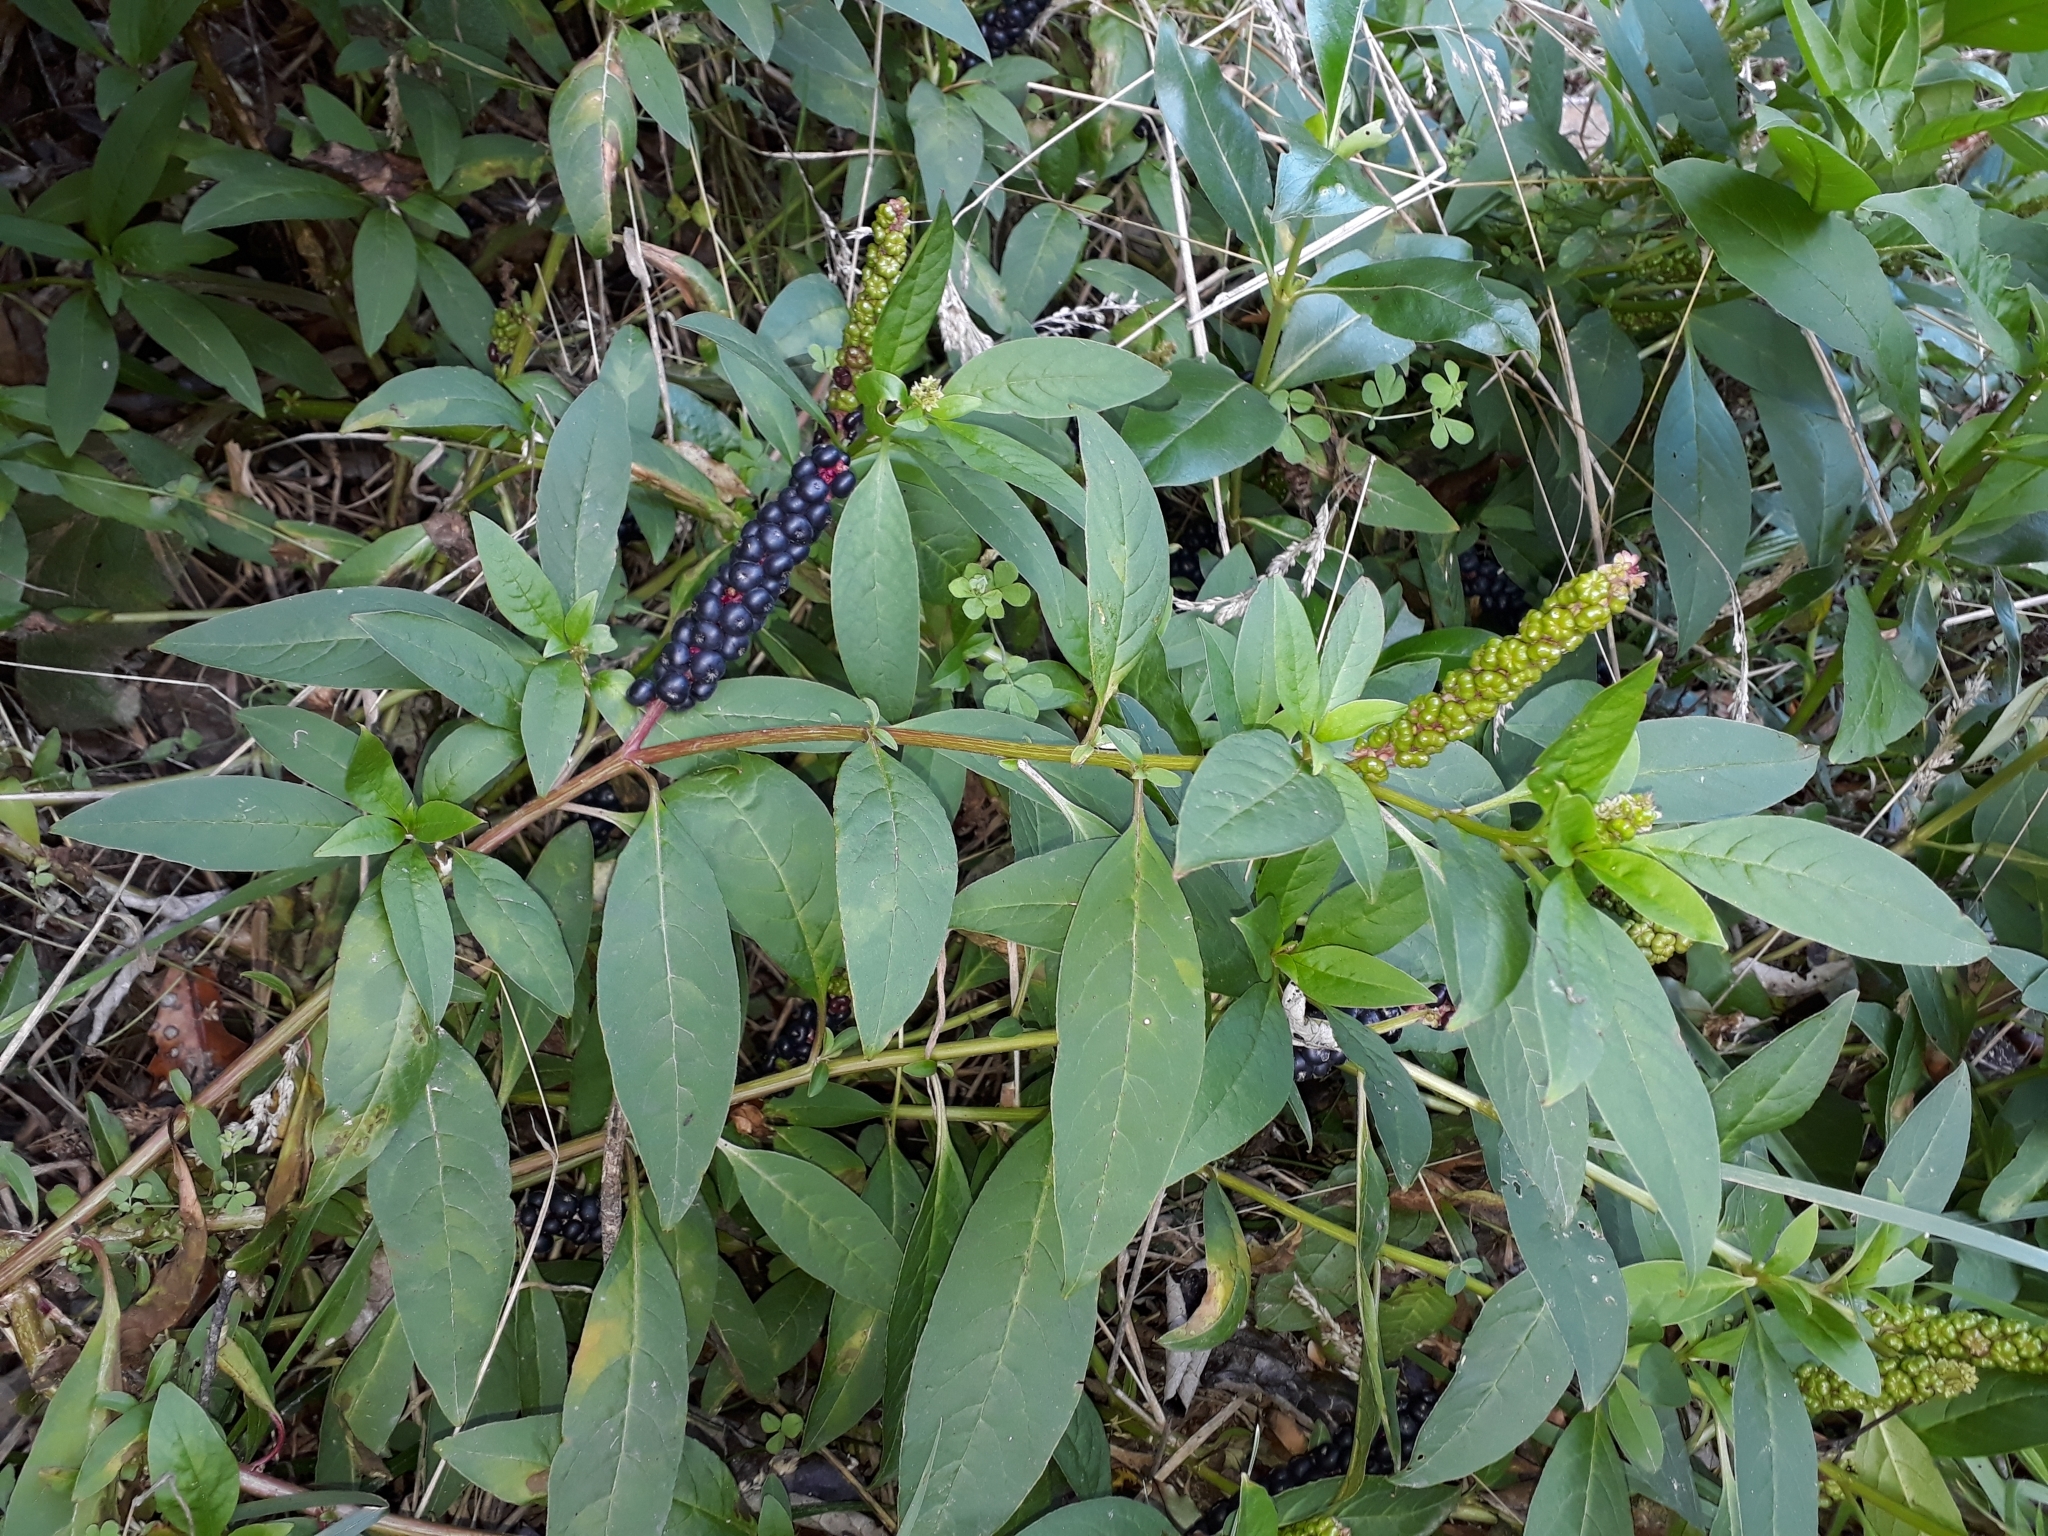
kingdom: Plantae
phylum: Tracheophyta
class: Magnoliopsida
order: Caryophyllales
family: Phytolaccaceae
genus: Phytolacca
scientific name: Phytolacca icosandra
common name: Button pokeweed
